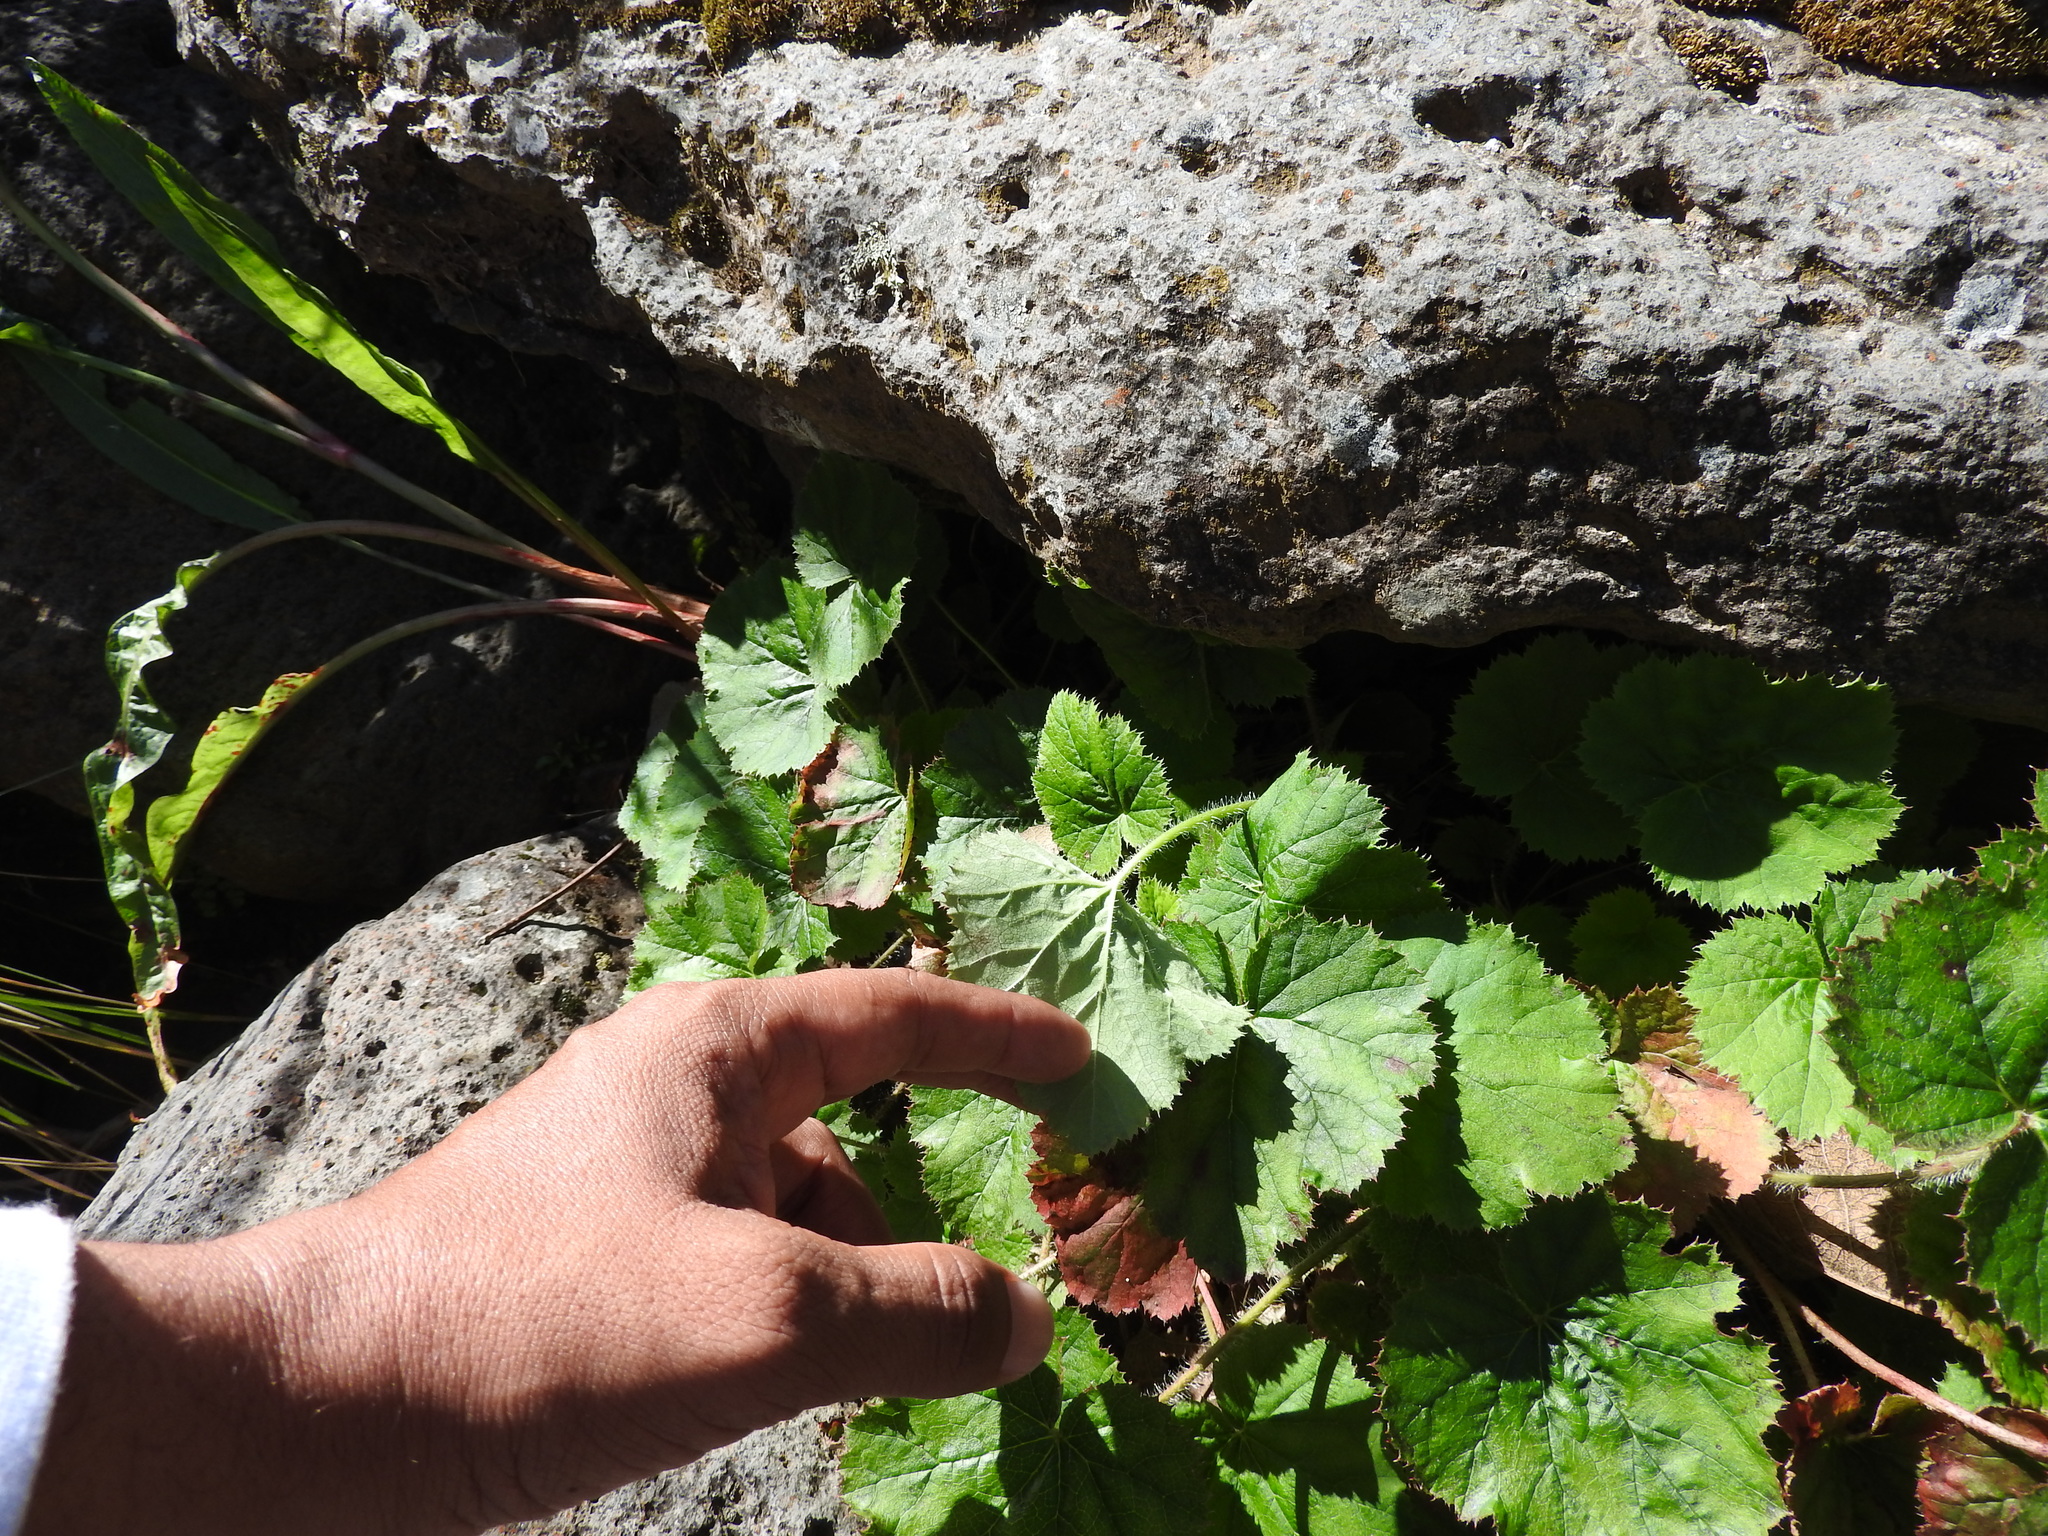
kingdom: Plantae
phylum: Tracheophyta
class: Magnoliopsida
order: Saxifragales
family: Saxifragaceae
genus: Heuchera
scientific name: Heuchera longipetala
